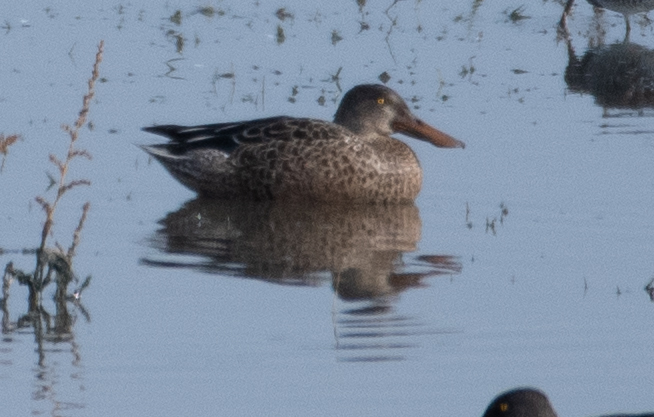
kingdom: Animalia
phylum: Chordata
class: Aves
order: Anseriformes
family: Anatidae
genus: Spatula
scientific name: Spatula clypeata
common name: Northern shoveler
